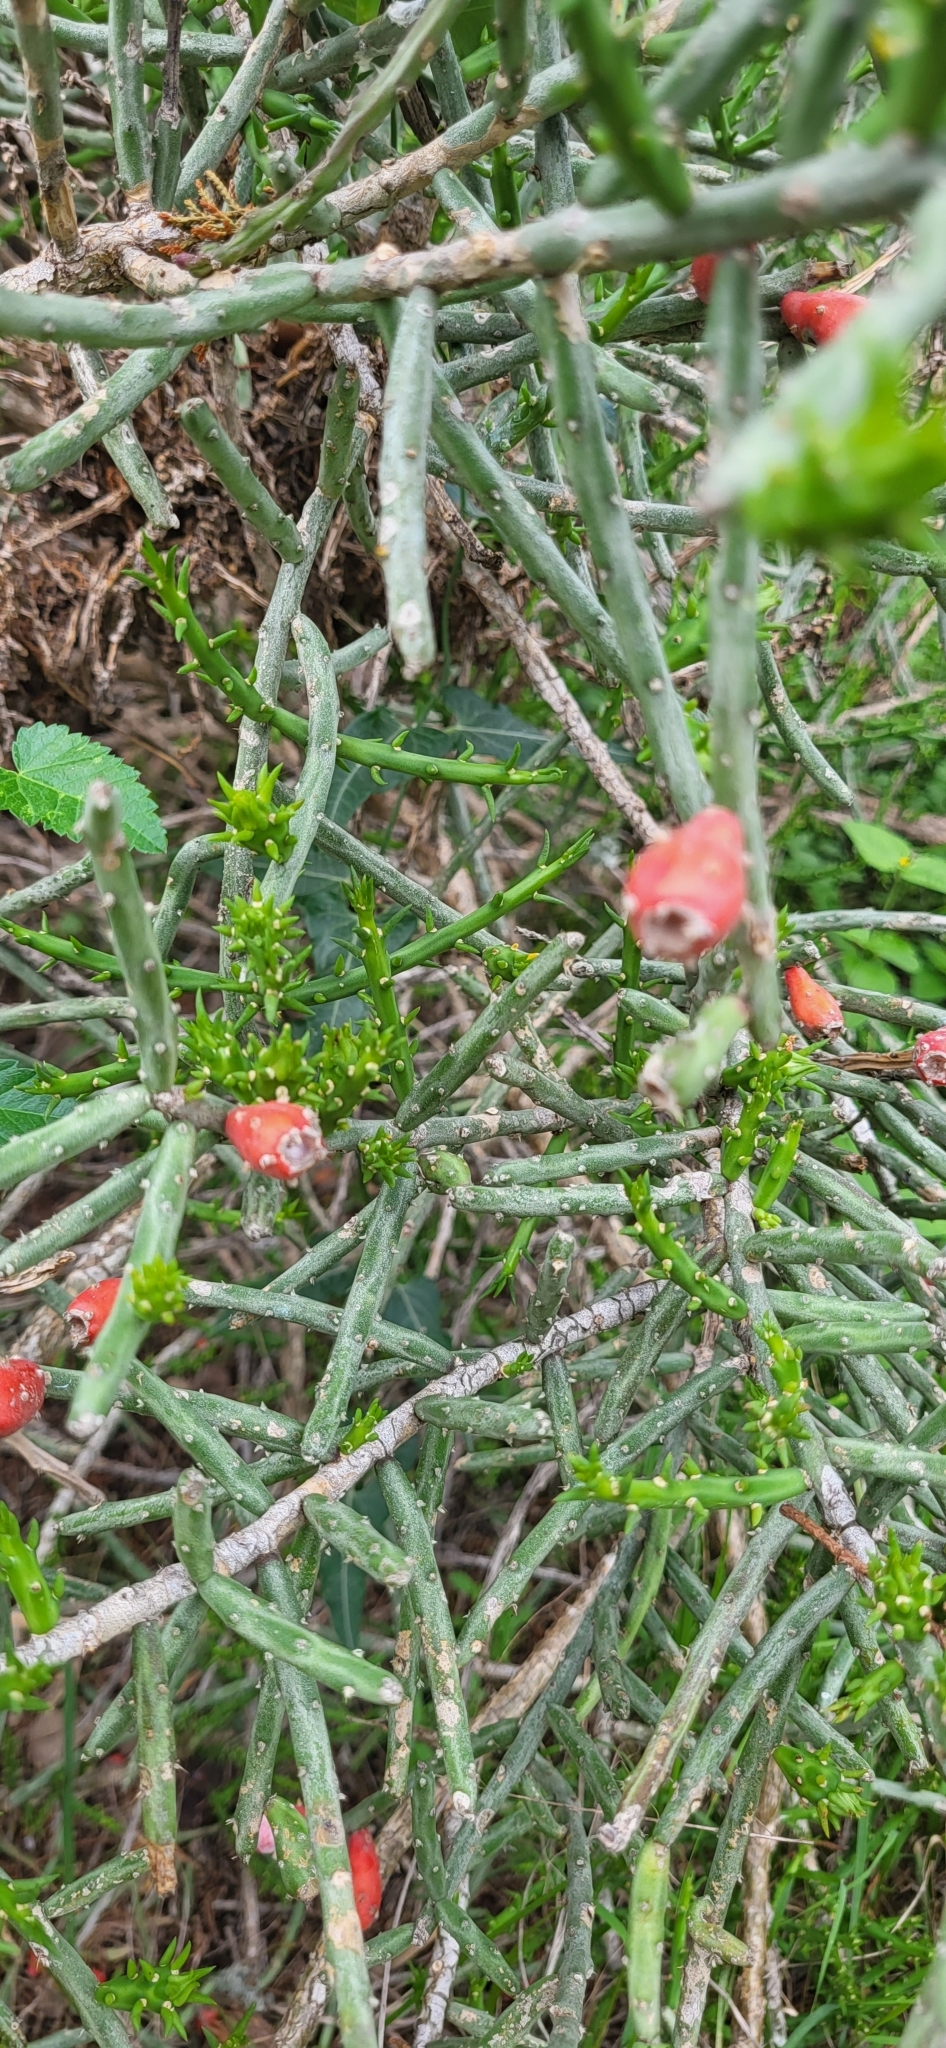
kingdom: Plantae
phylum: Tracheophyta
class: Magnoliopsida
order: Caryophyllales
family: Cactaceae
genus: Cylindropuntia
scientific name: Cylindropuntia leptocaulis
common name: Christmas cactus
